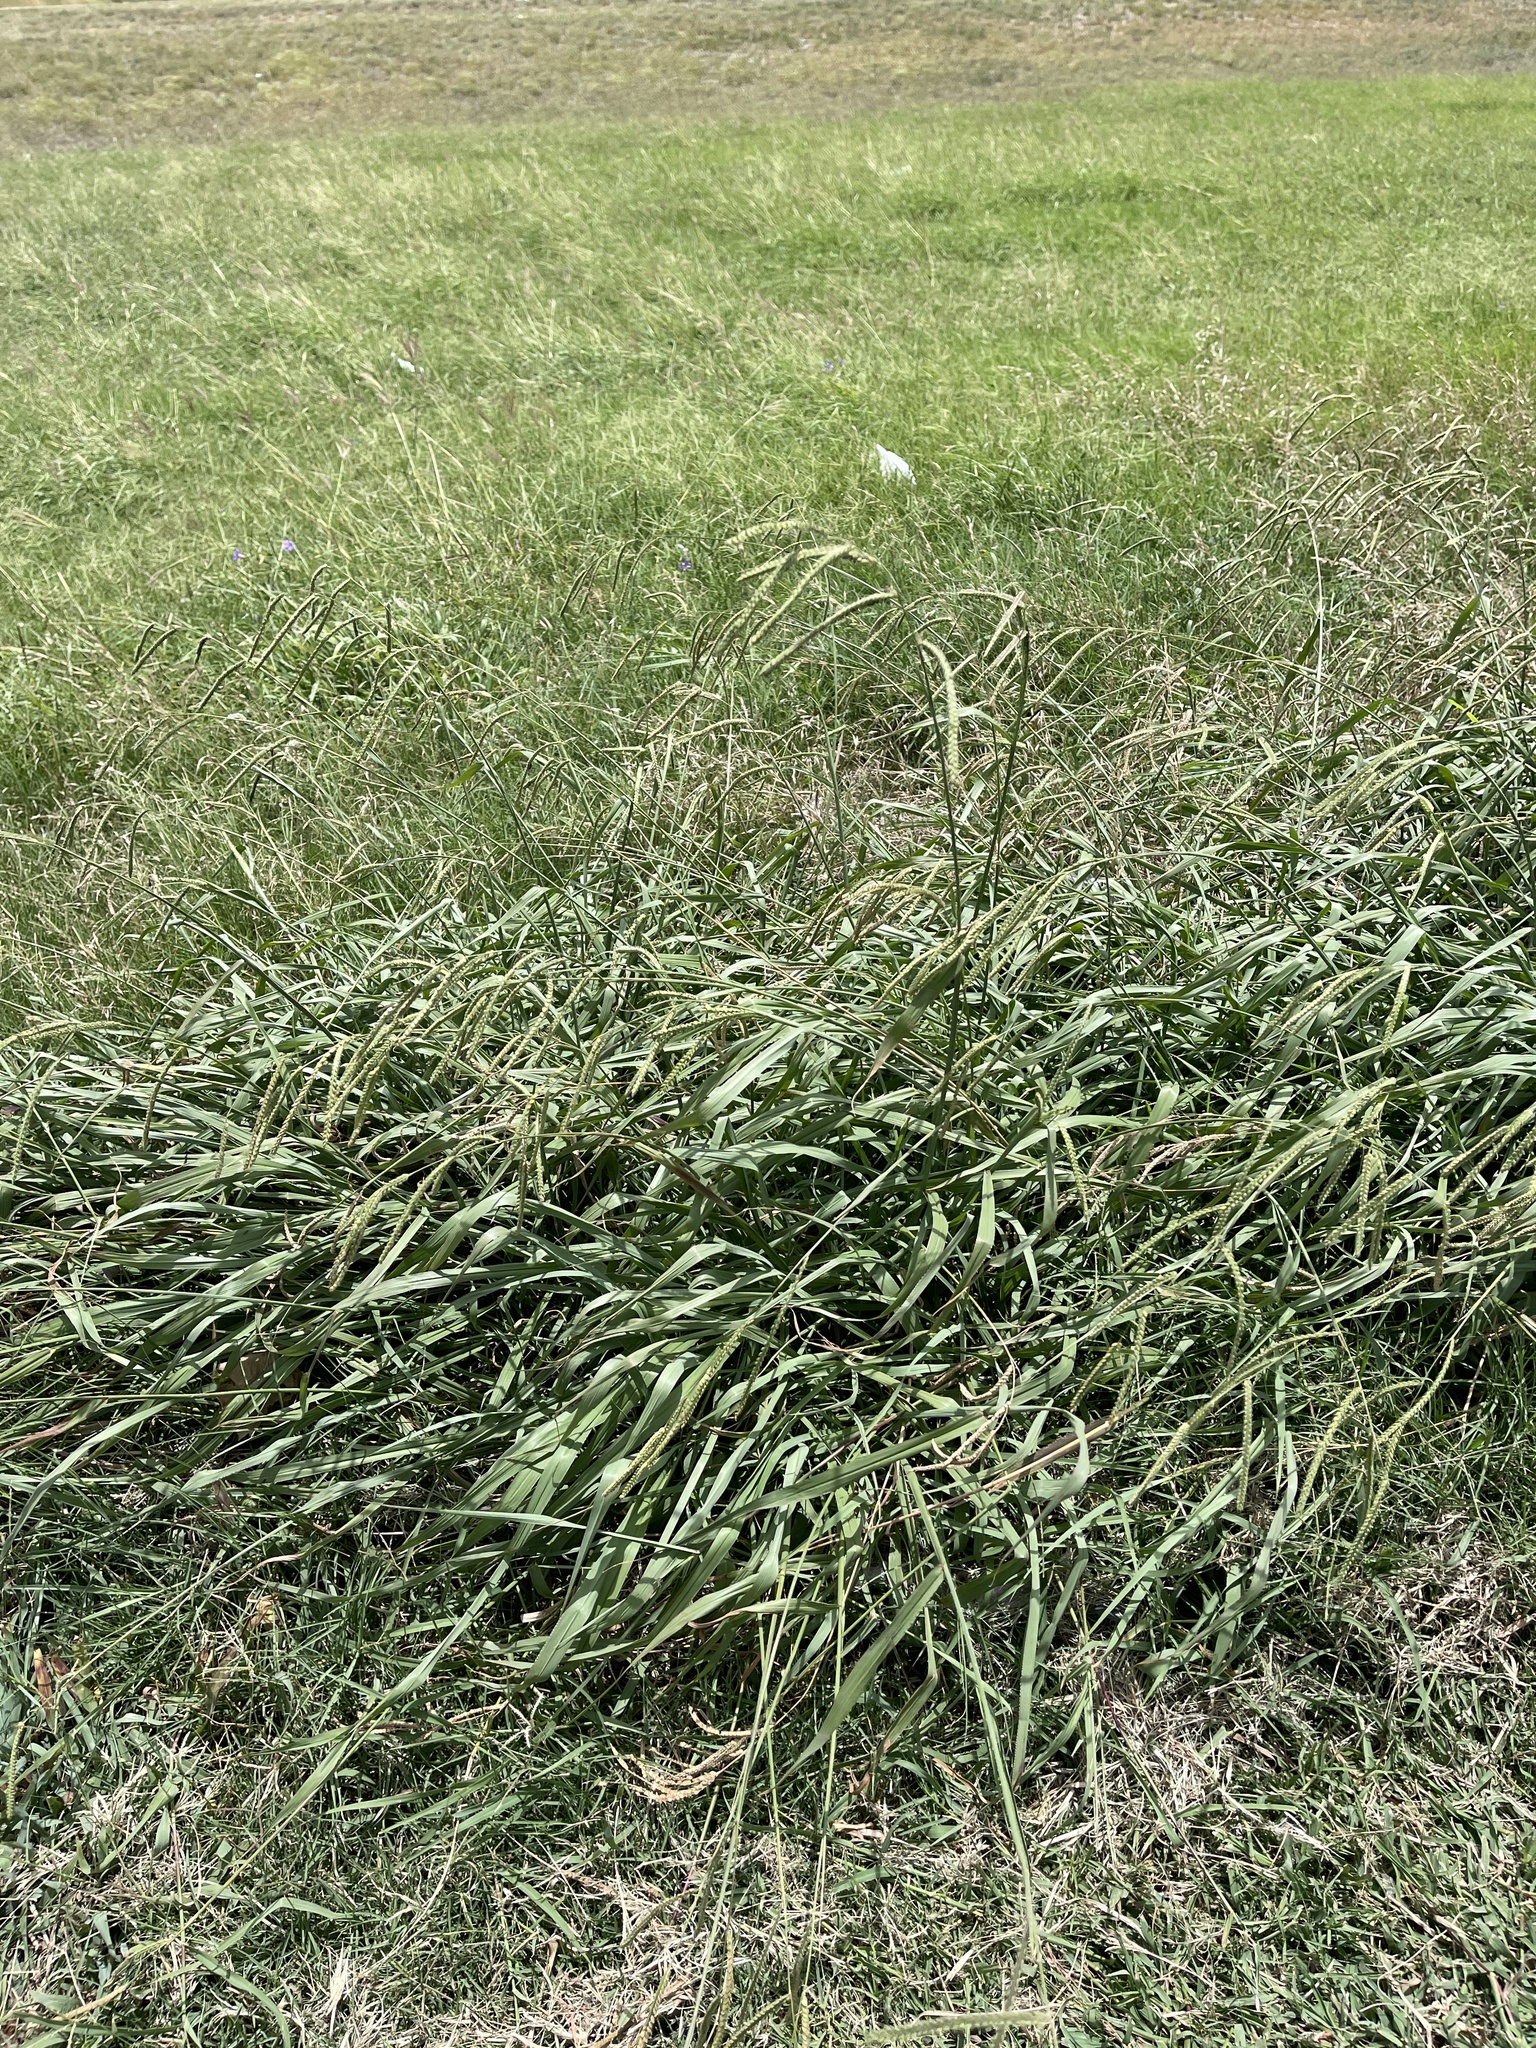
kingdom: Plantae
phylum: Tracheophyta
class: Liliopsida
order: Poales
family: Poaceae
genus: Paspalum
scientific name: Paspalum dilatatum
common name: Dallisgrass
